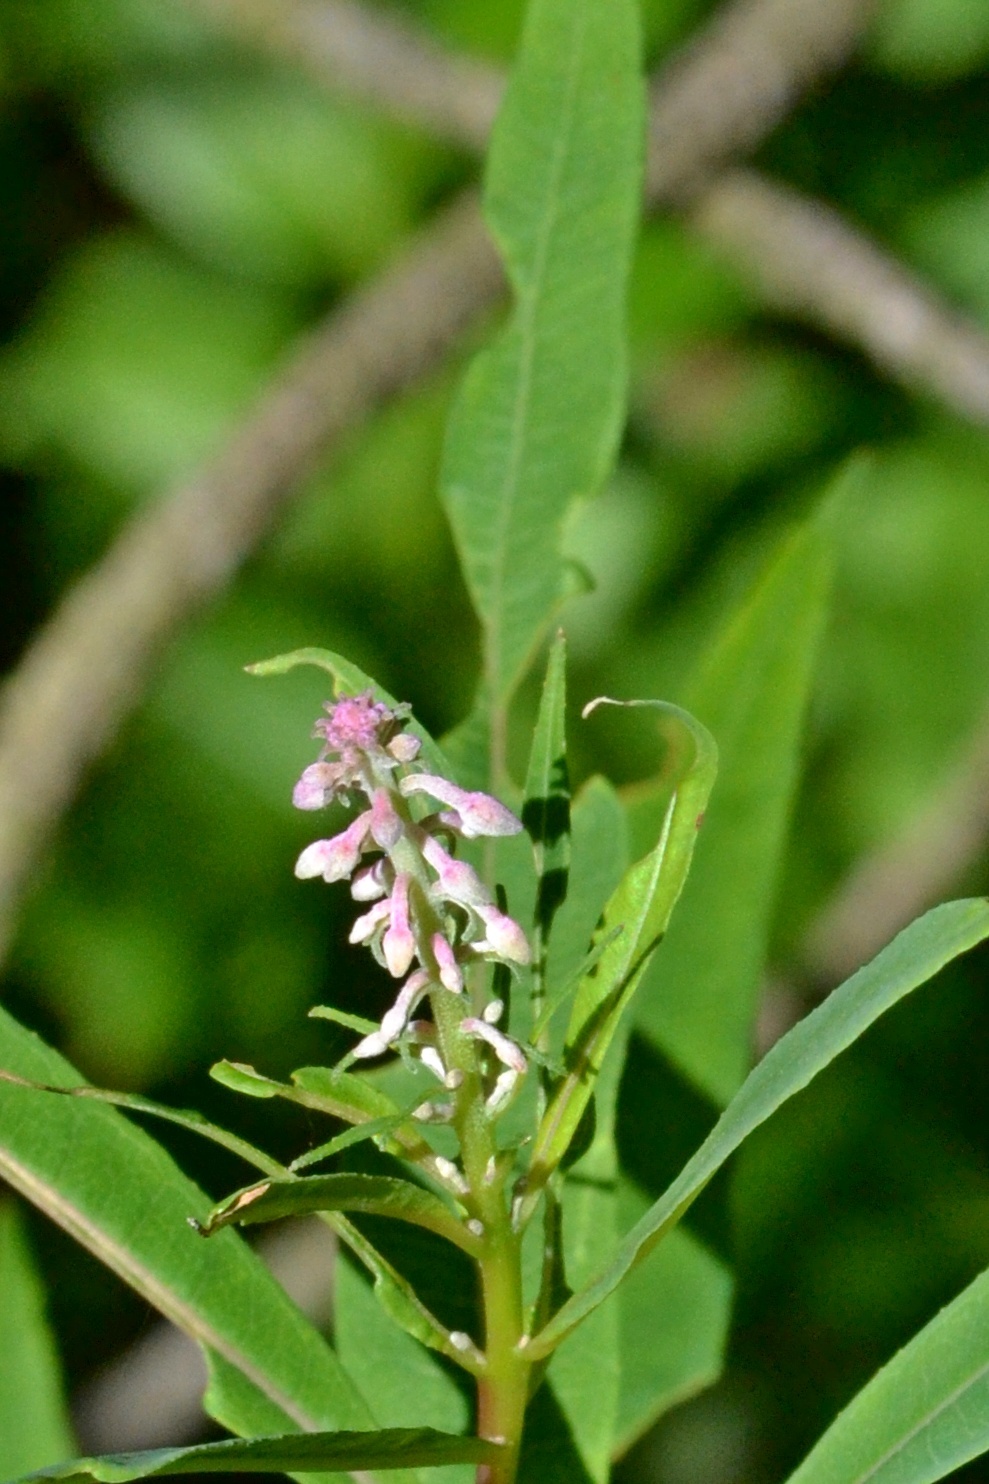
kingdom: Plantae
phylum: Tracheophyta
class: Magnoliopsida
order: Myrtales
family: Onagraceae
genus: Chamaenerion
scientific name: Chamaenerion angustifolium
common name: Fireweed
